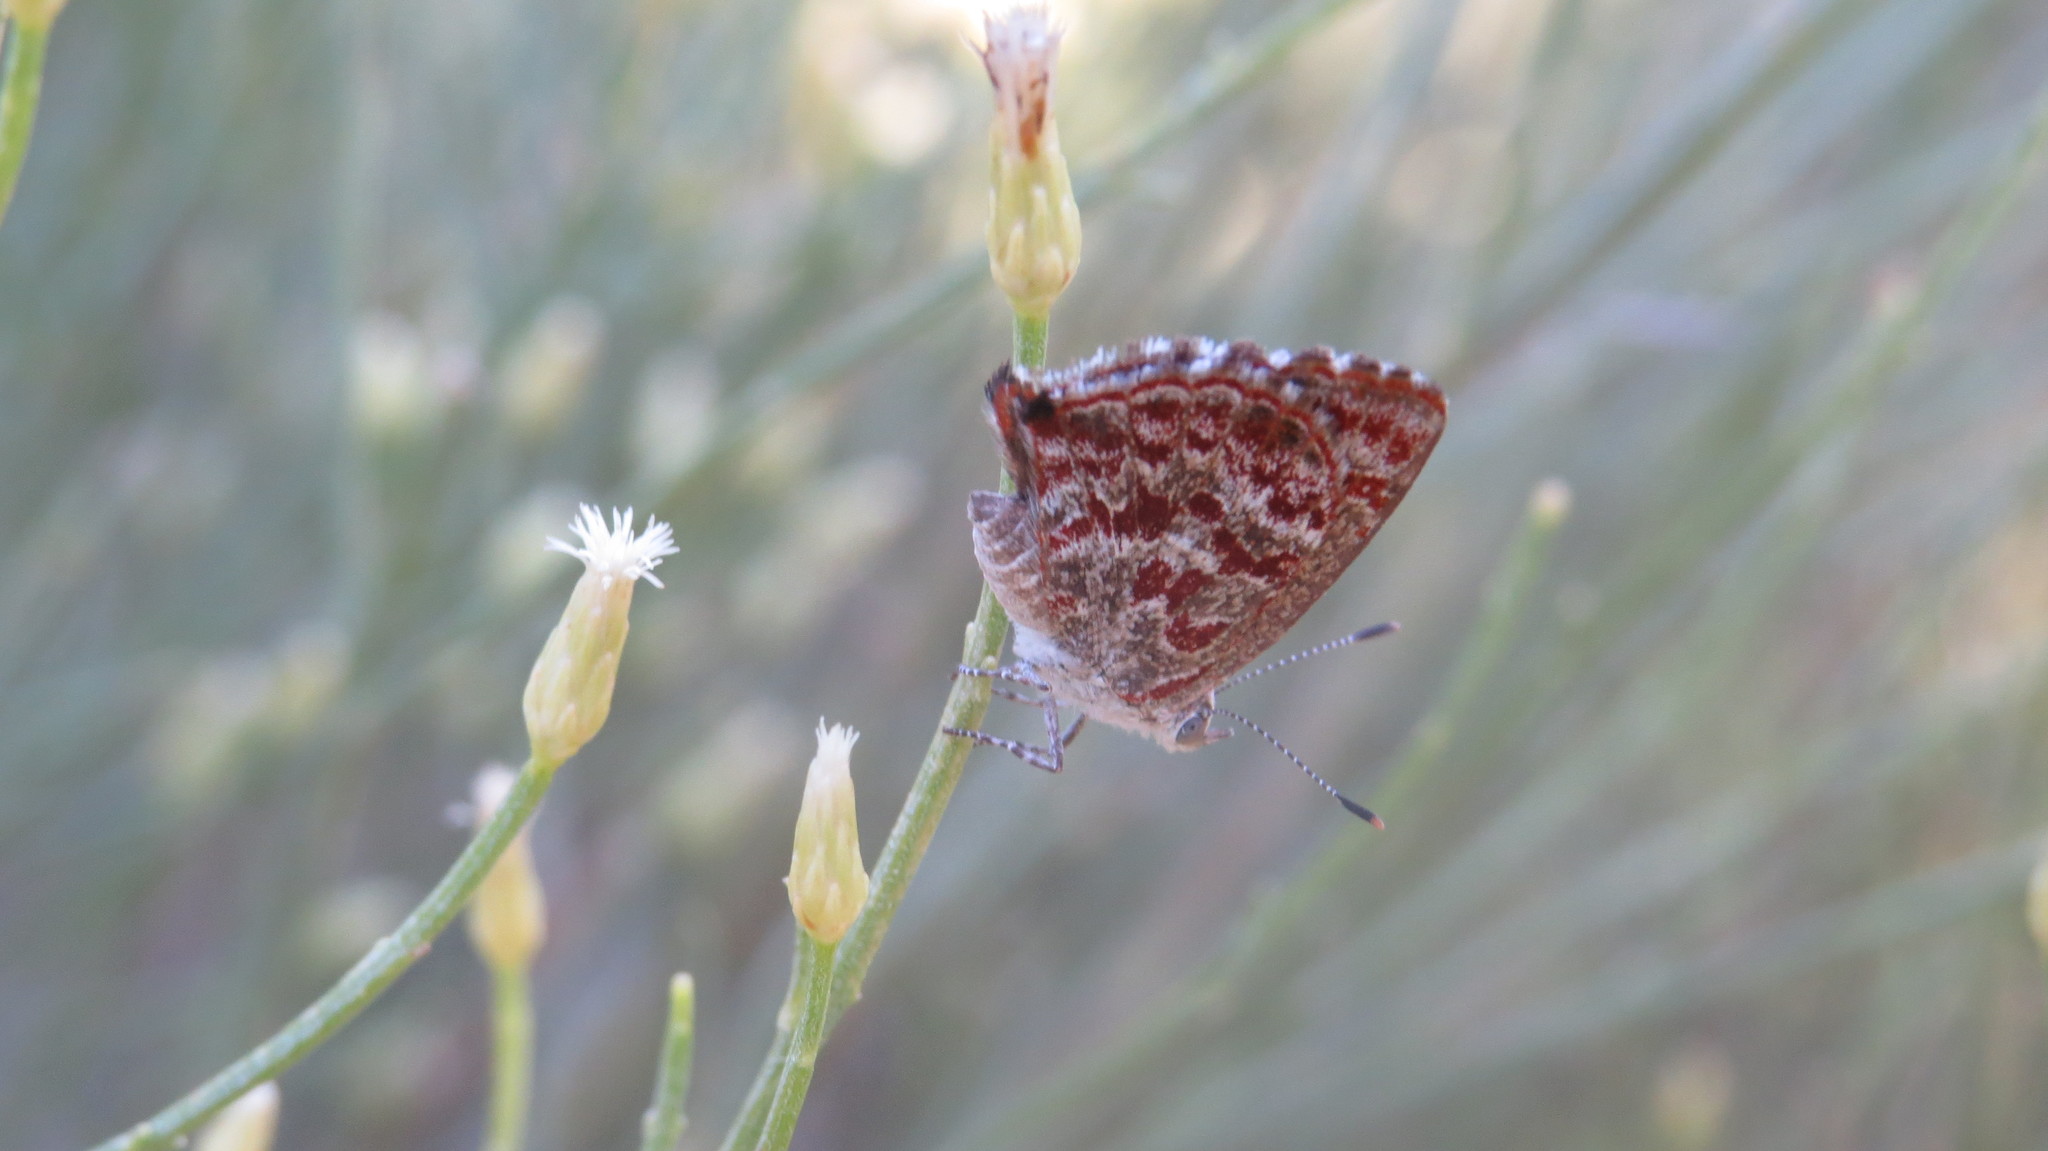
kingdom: Animalia
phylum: Arthropoda
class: Insecta
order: Lepidoptera
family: Lycaenidae
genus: Ministrymon
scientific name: Ministrymon
